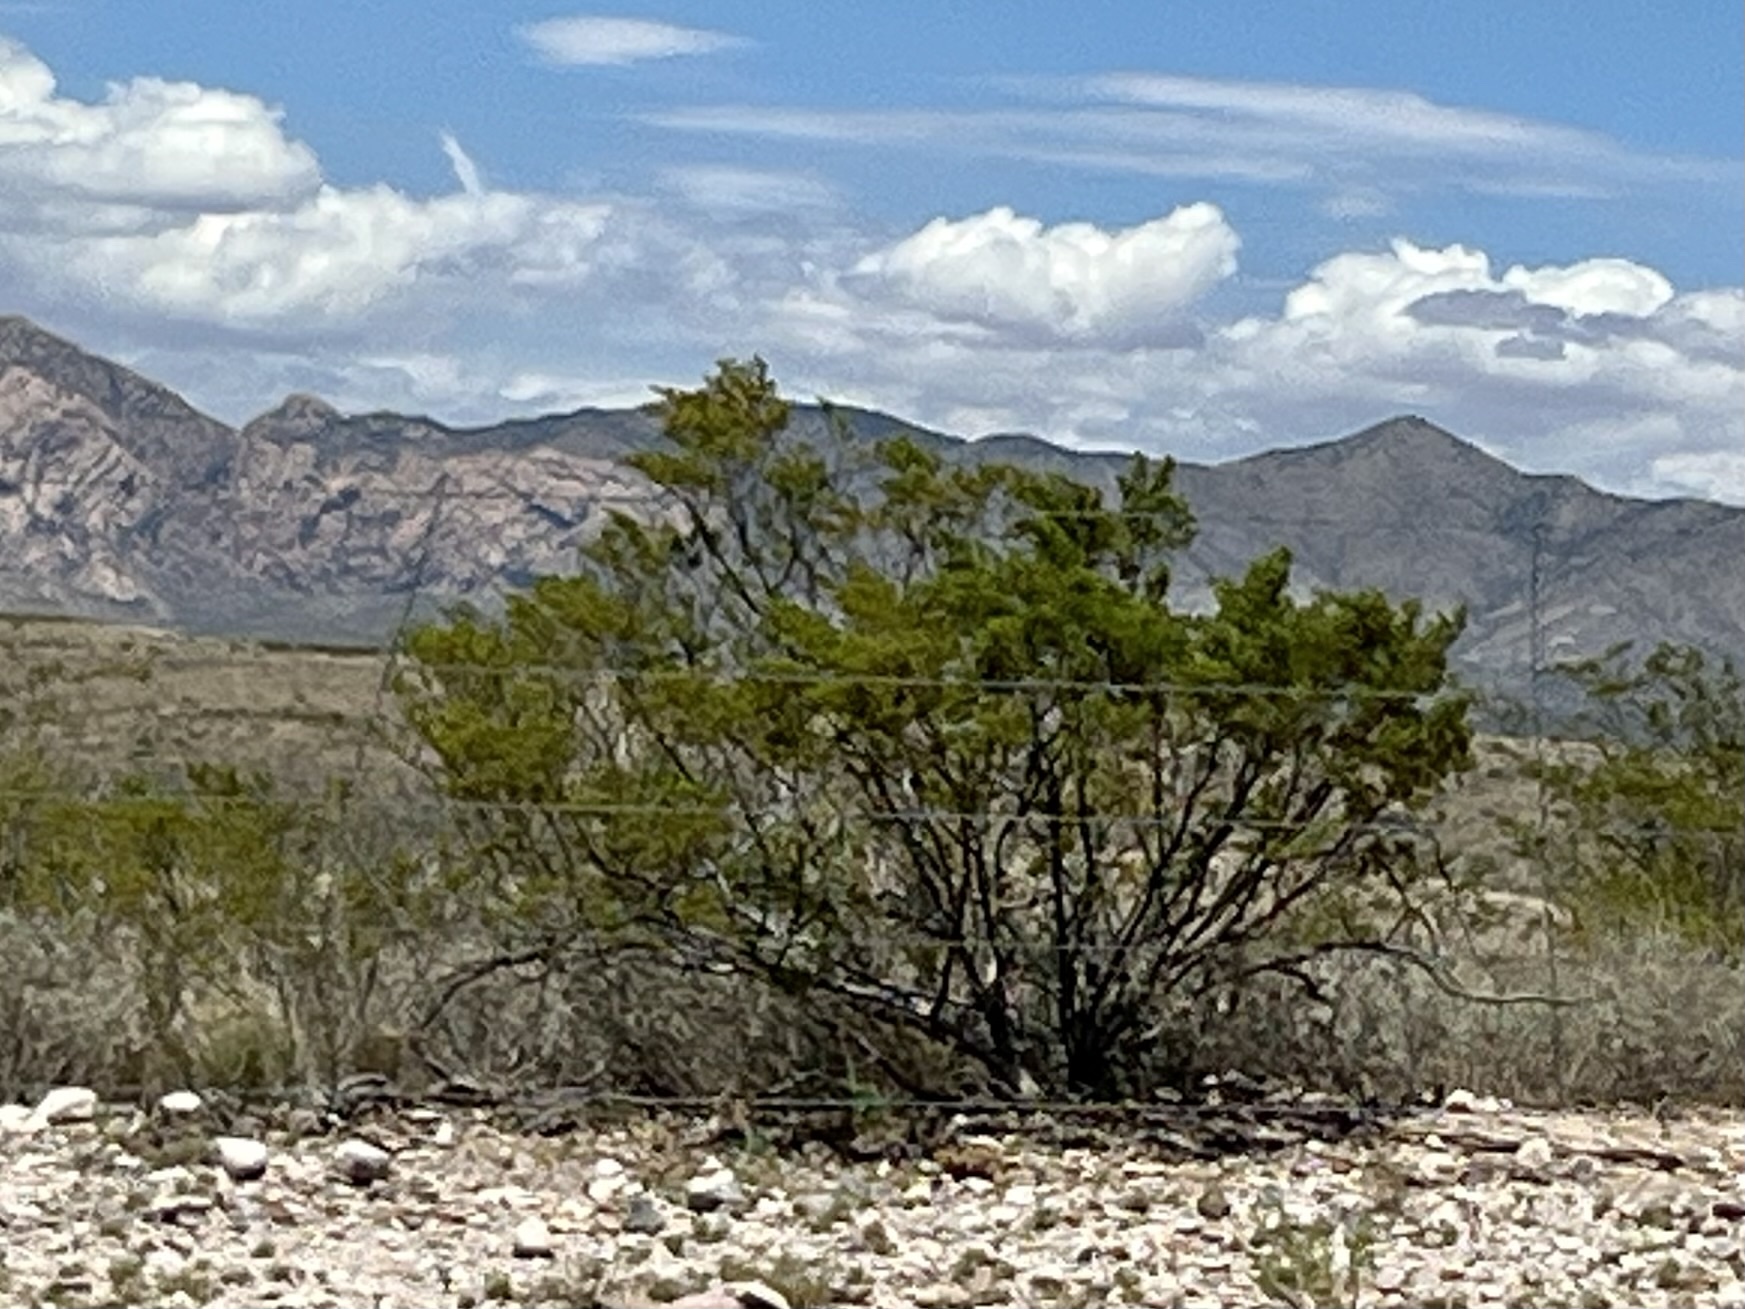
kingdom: Plantae
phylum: Tracheophyta
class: Magnoliopsida
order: Zygophyllales
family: Zygophyllaceae
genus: Larrea
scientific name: Larrea tridentata
